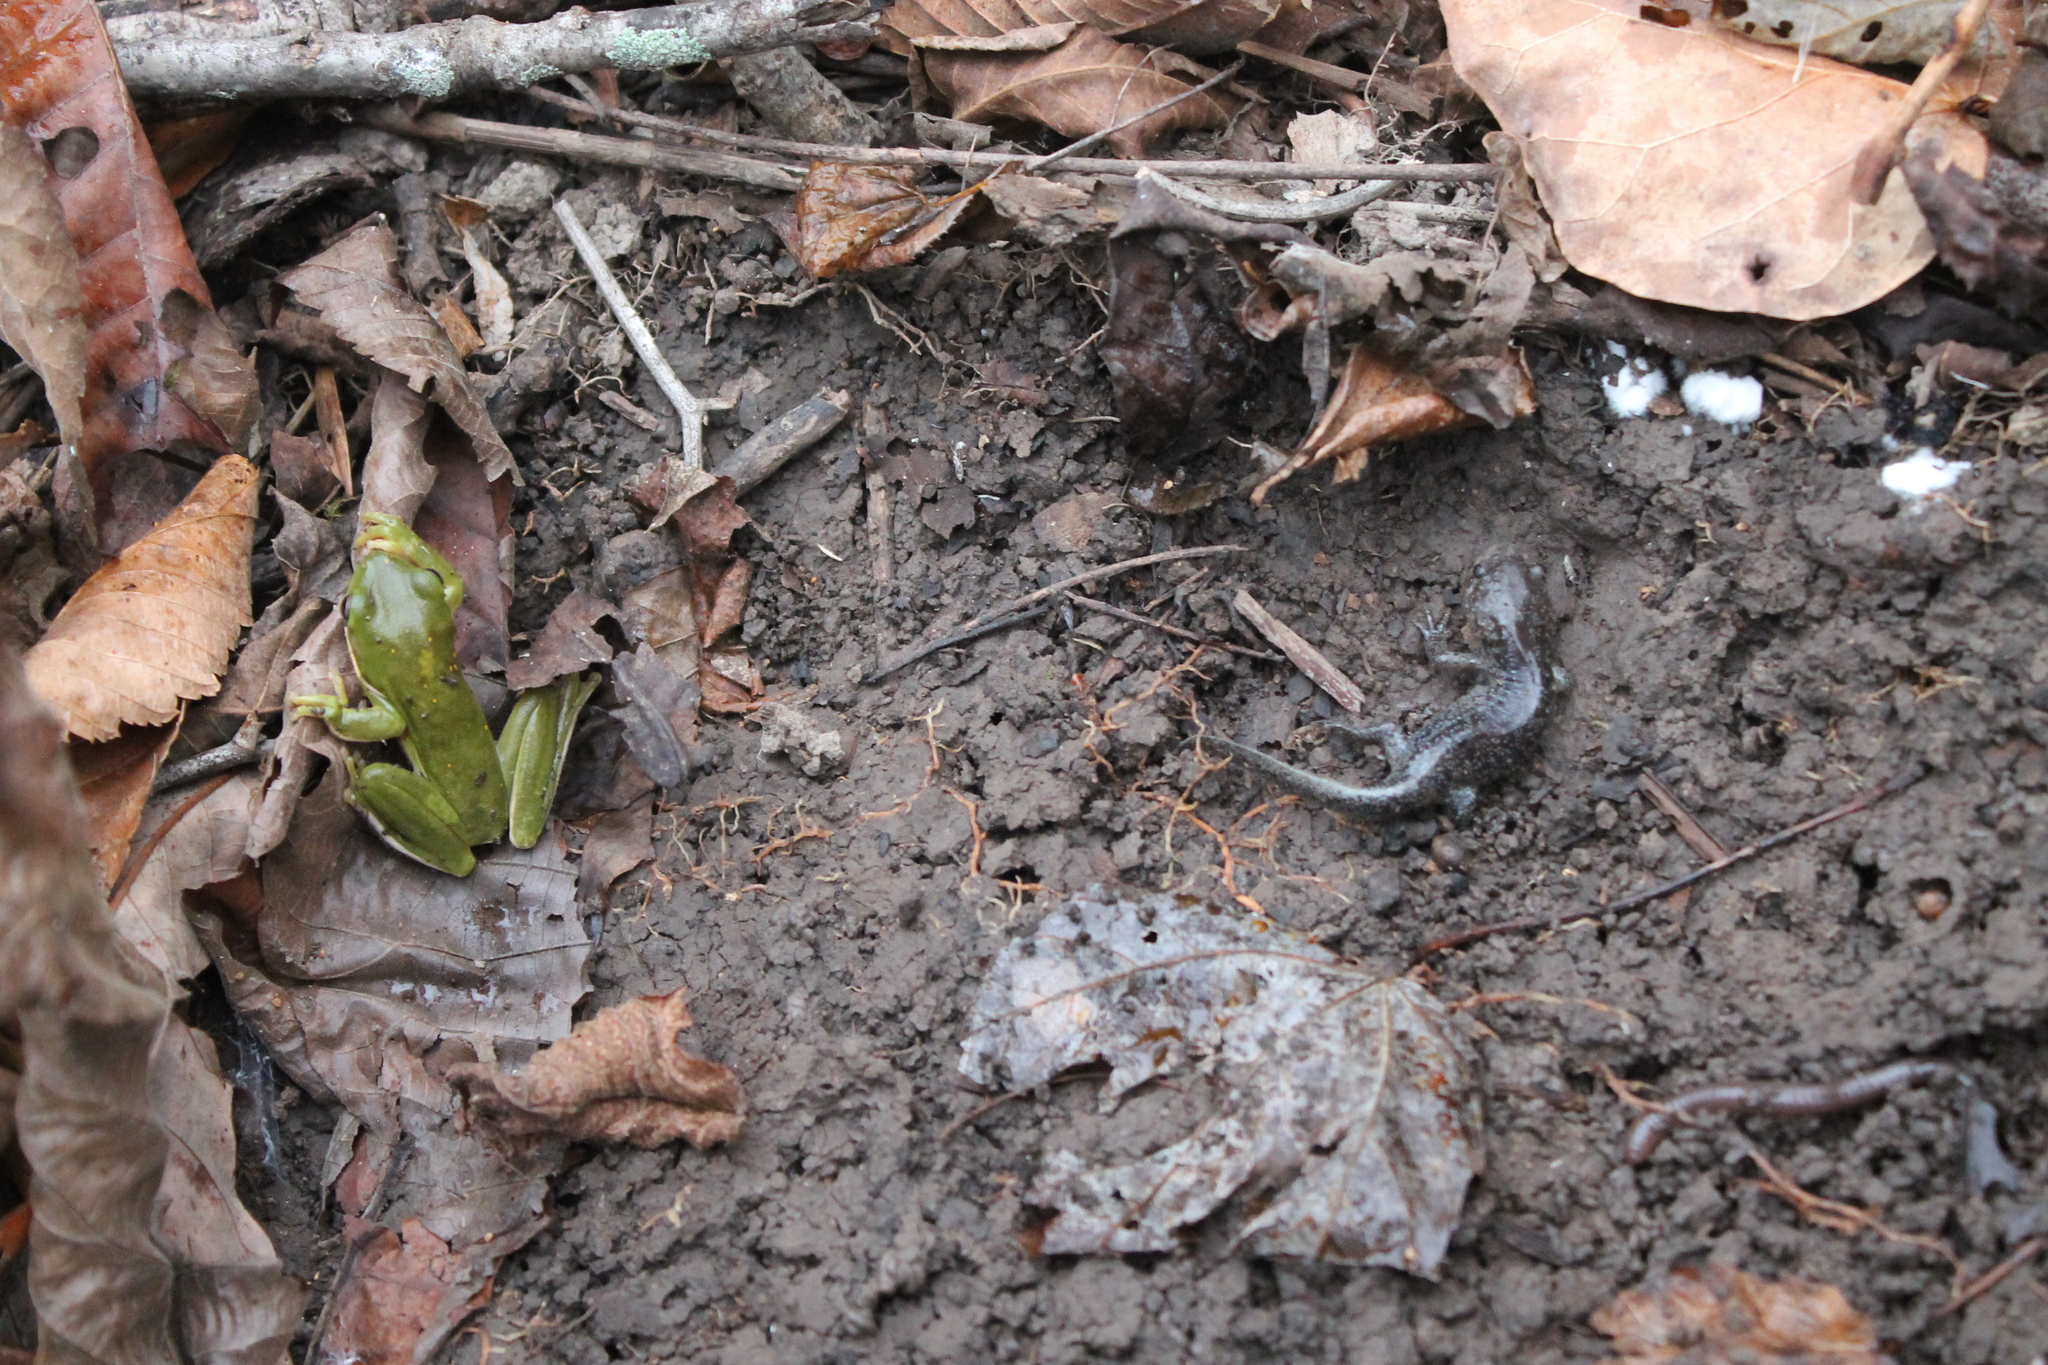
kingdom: Animalia
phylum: Chordata
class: Amphibia
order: Anura
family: Hylidae
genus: Dryophytes
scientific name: Dryophytes cinereus
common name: Green treefrog
